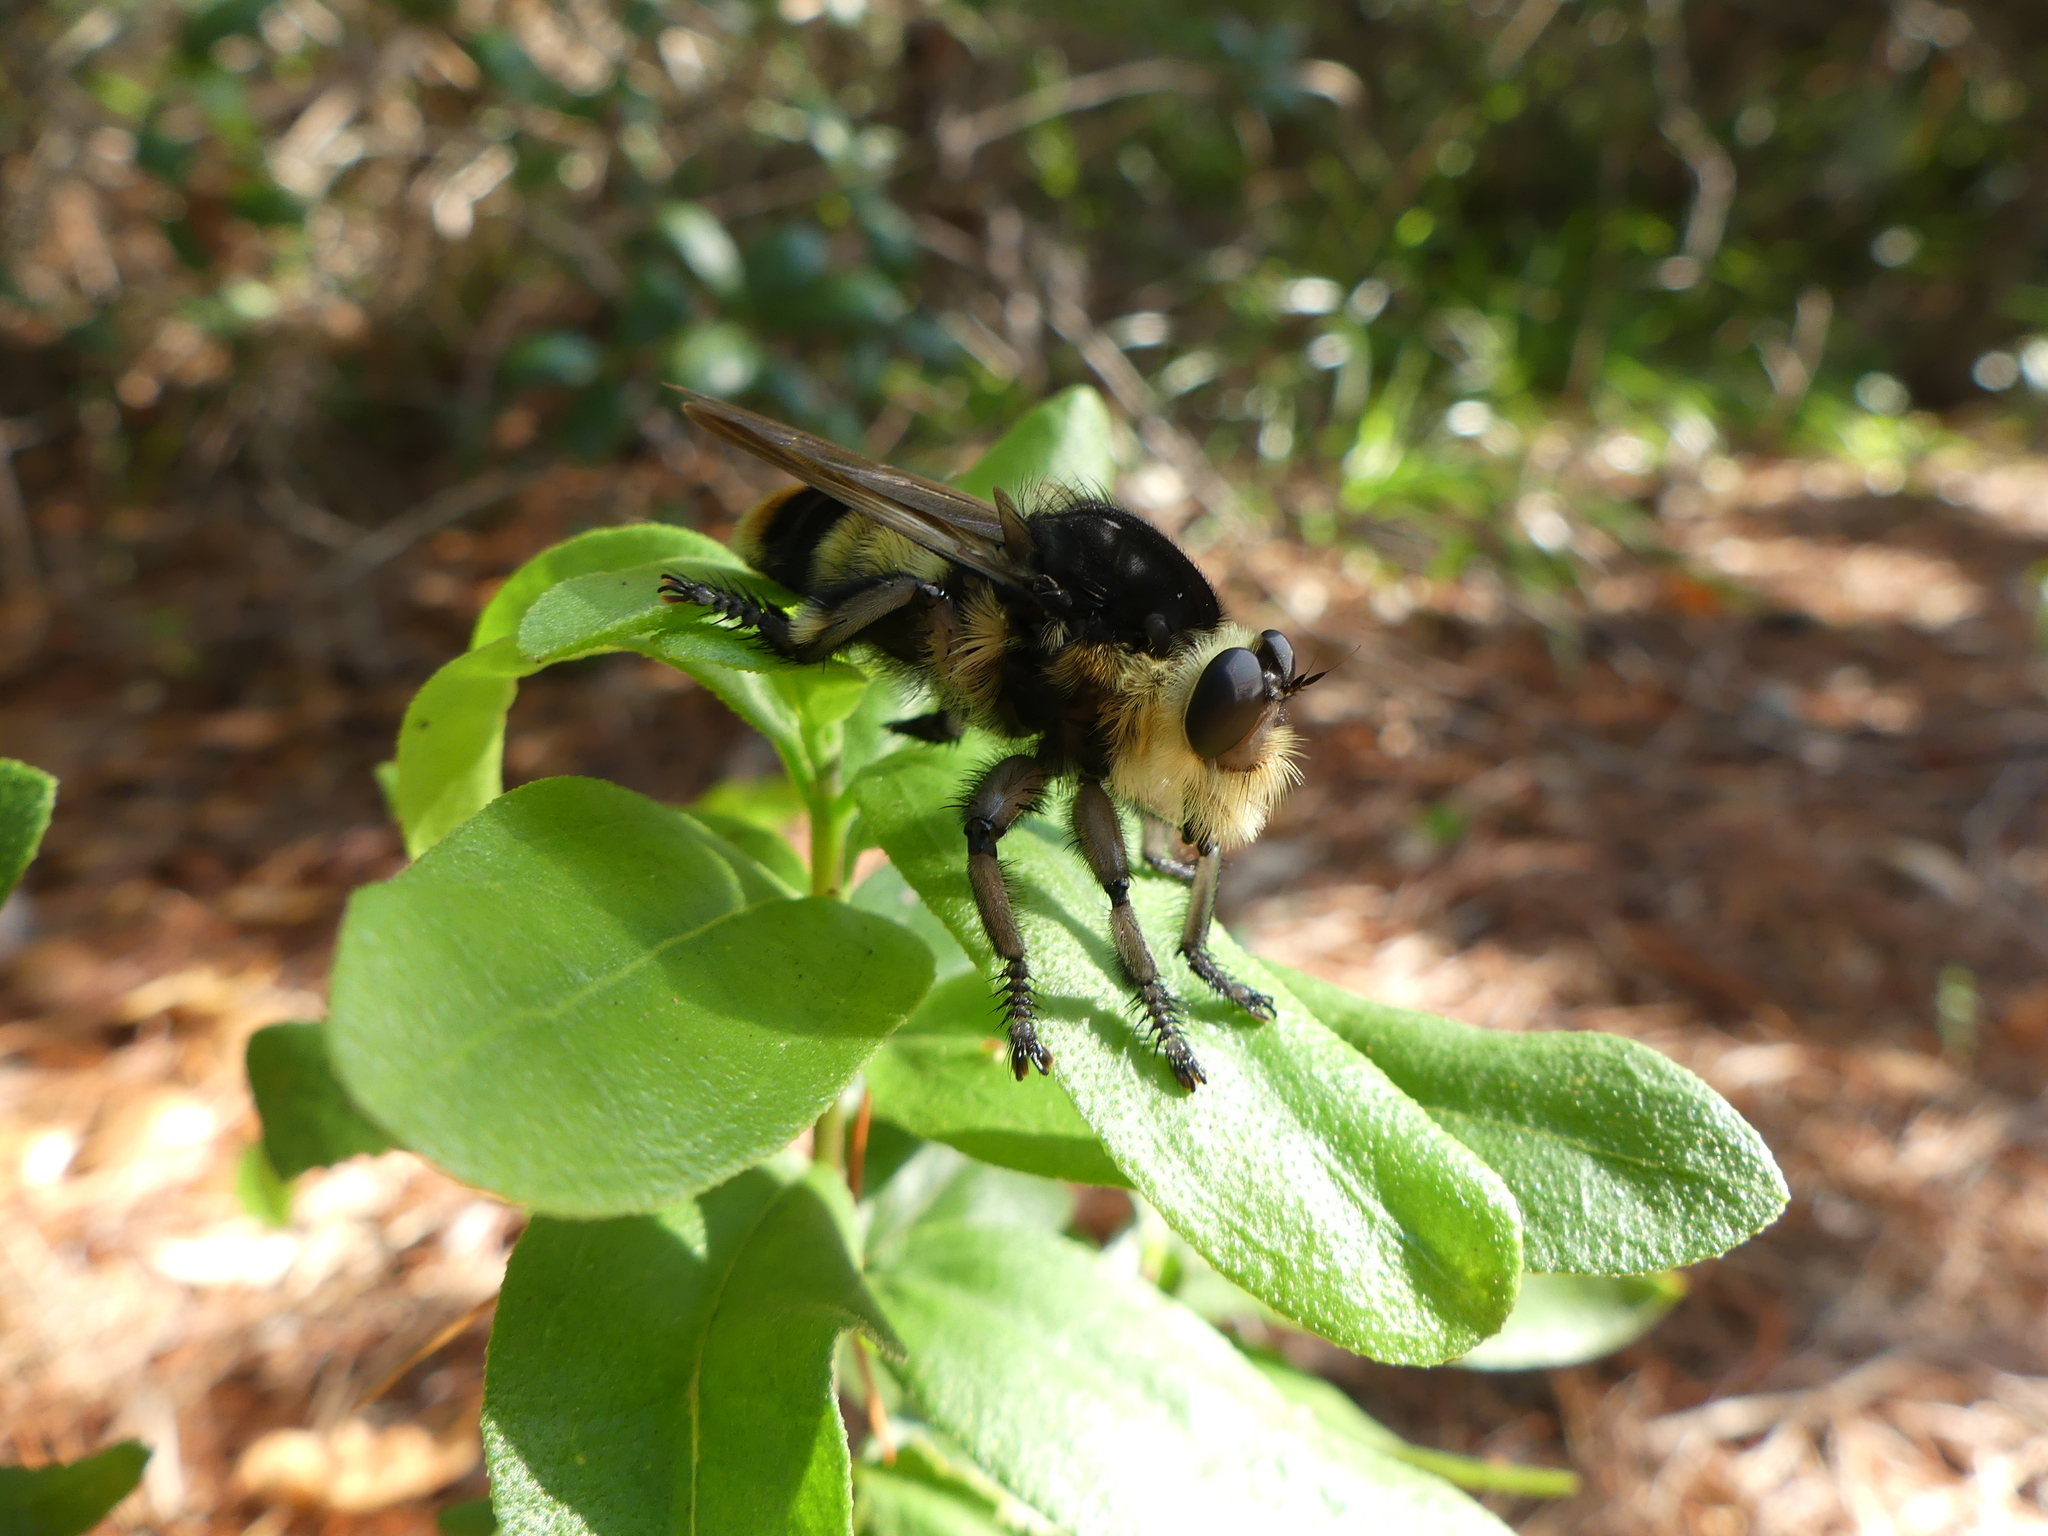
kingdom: Animalia
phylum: Arthropoda
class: Insecta
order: Diptera
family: Asilidae
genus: Mallophora
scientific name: Mallophora bomboides
